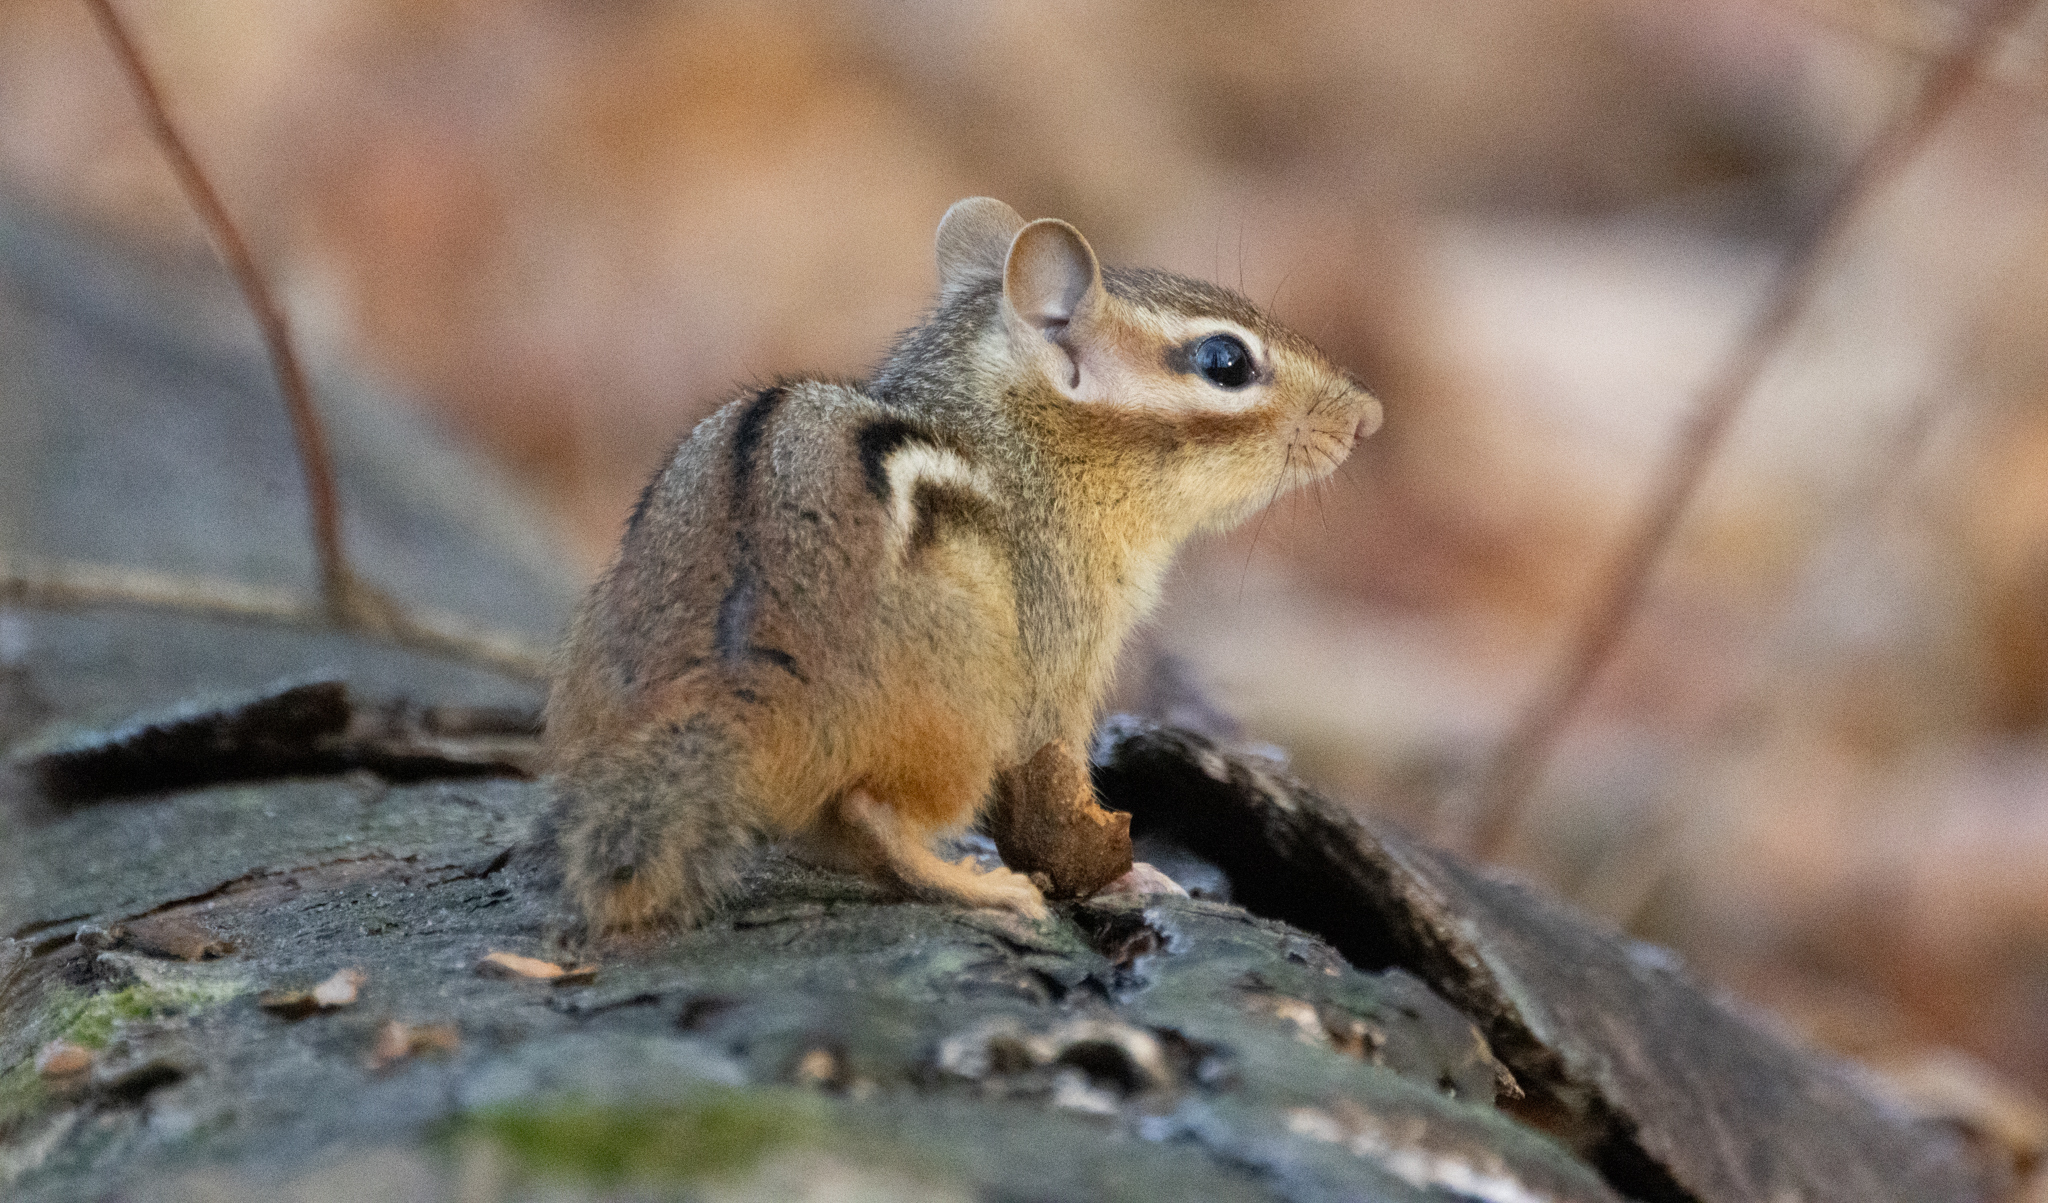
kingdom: Animalia
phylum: Chordata
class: Mammalia
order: Rodentia
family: Sciuridae
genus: Tamias
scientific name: Tamias striatus
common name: Eastern chipmunk
